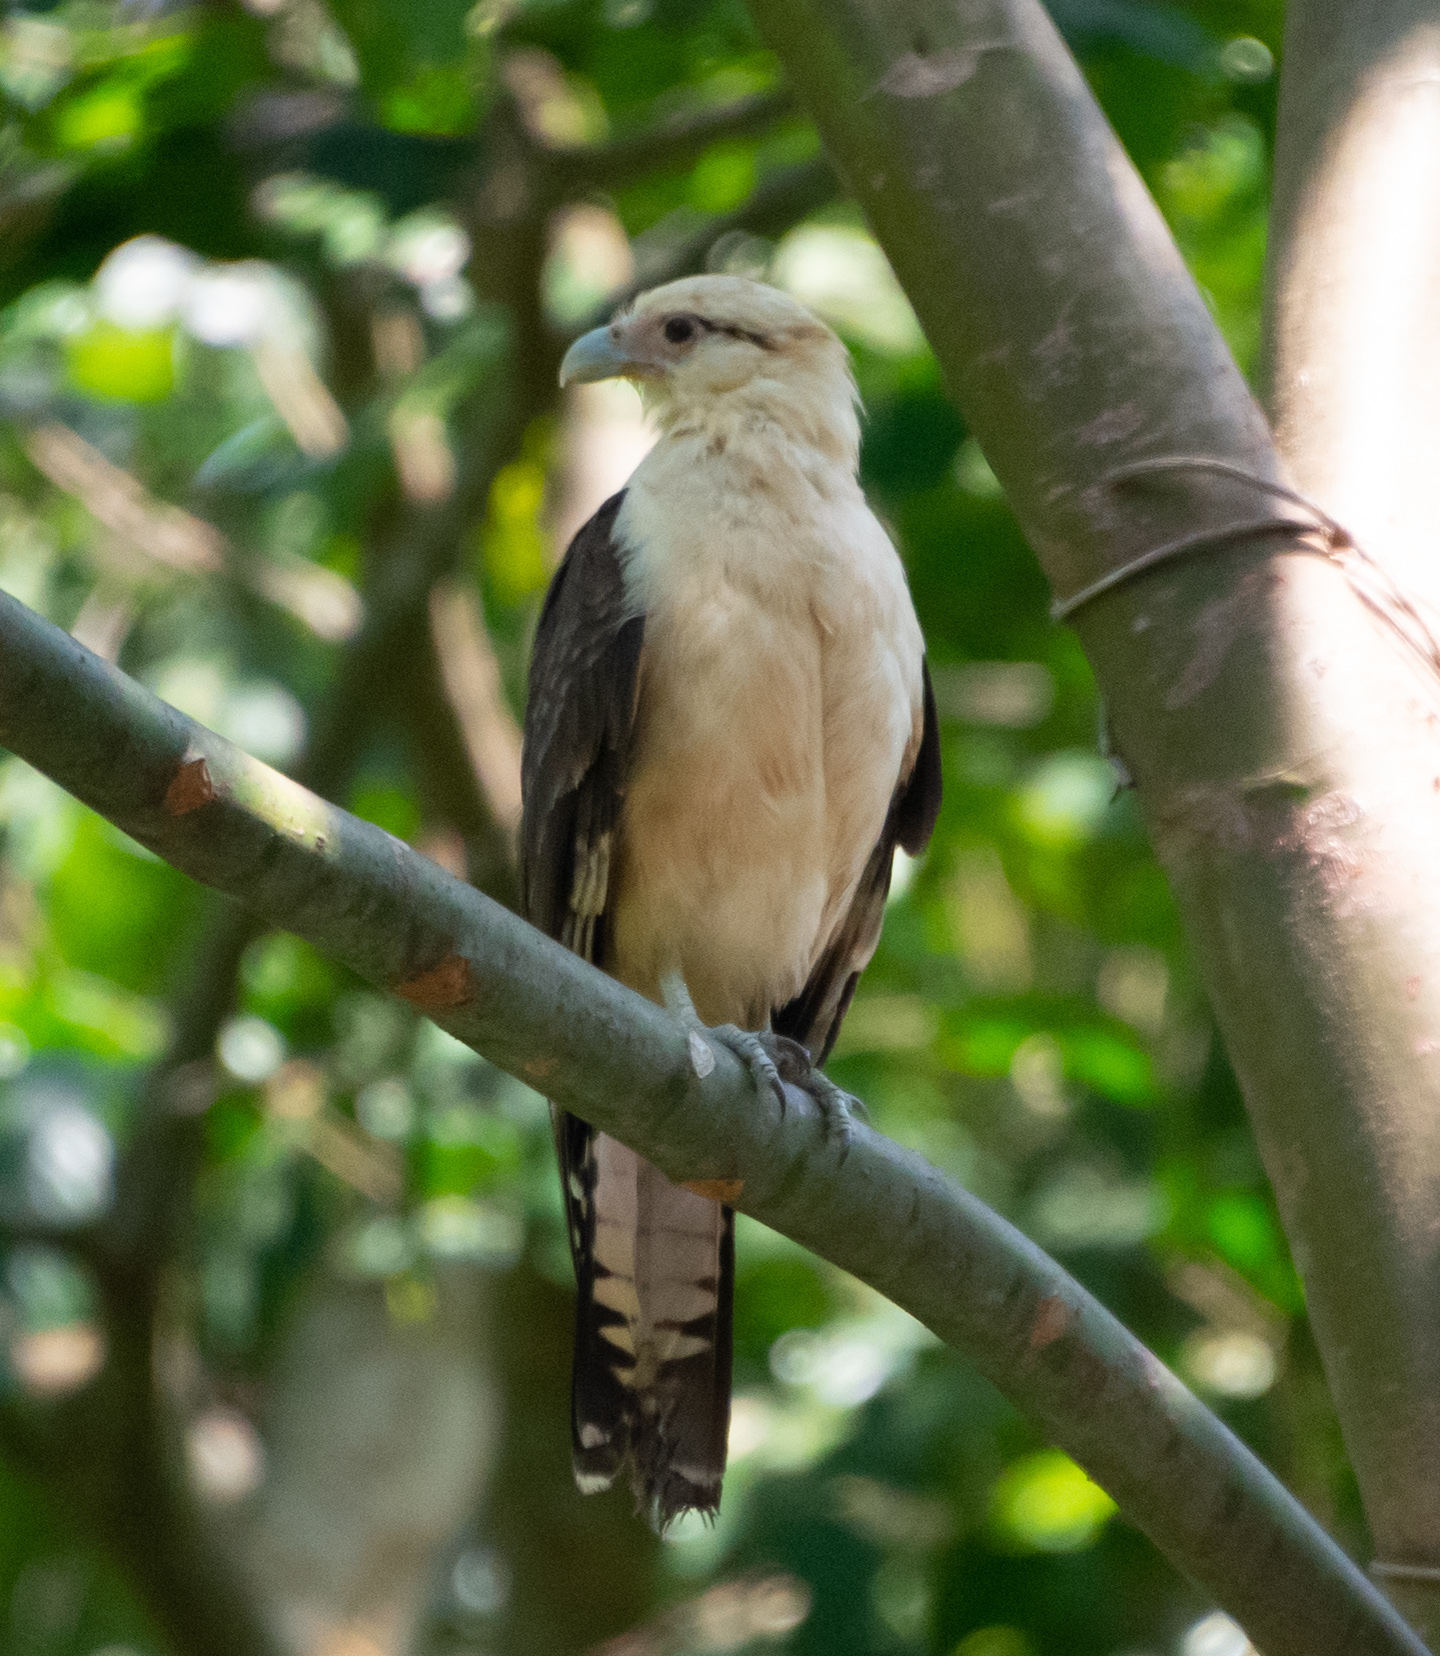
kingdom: Animalia
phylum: Chordata
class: Aves
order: Falconiformes
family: Falconidae
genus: Daptrius
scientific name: Daptrius
